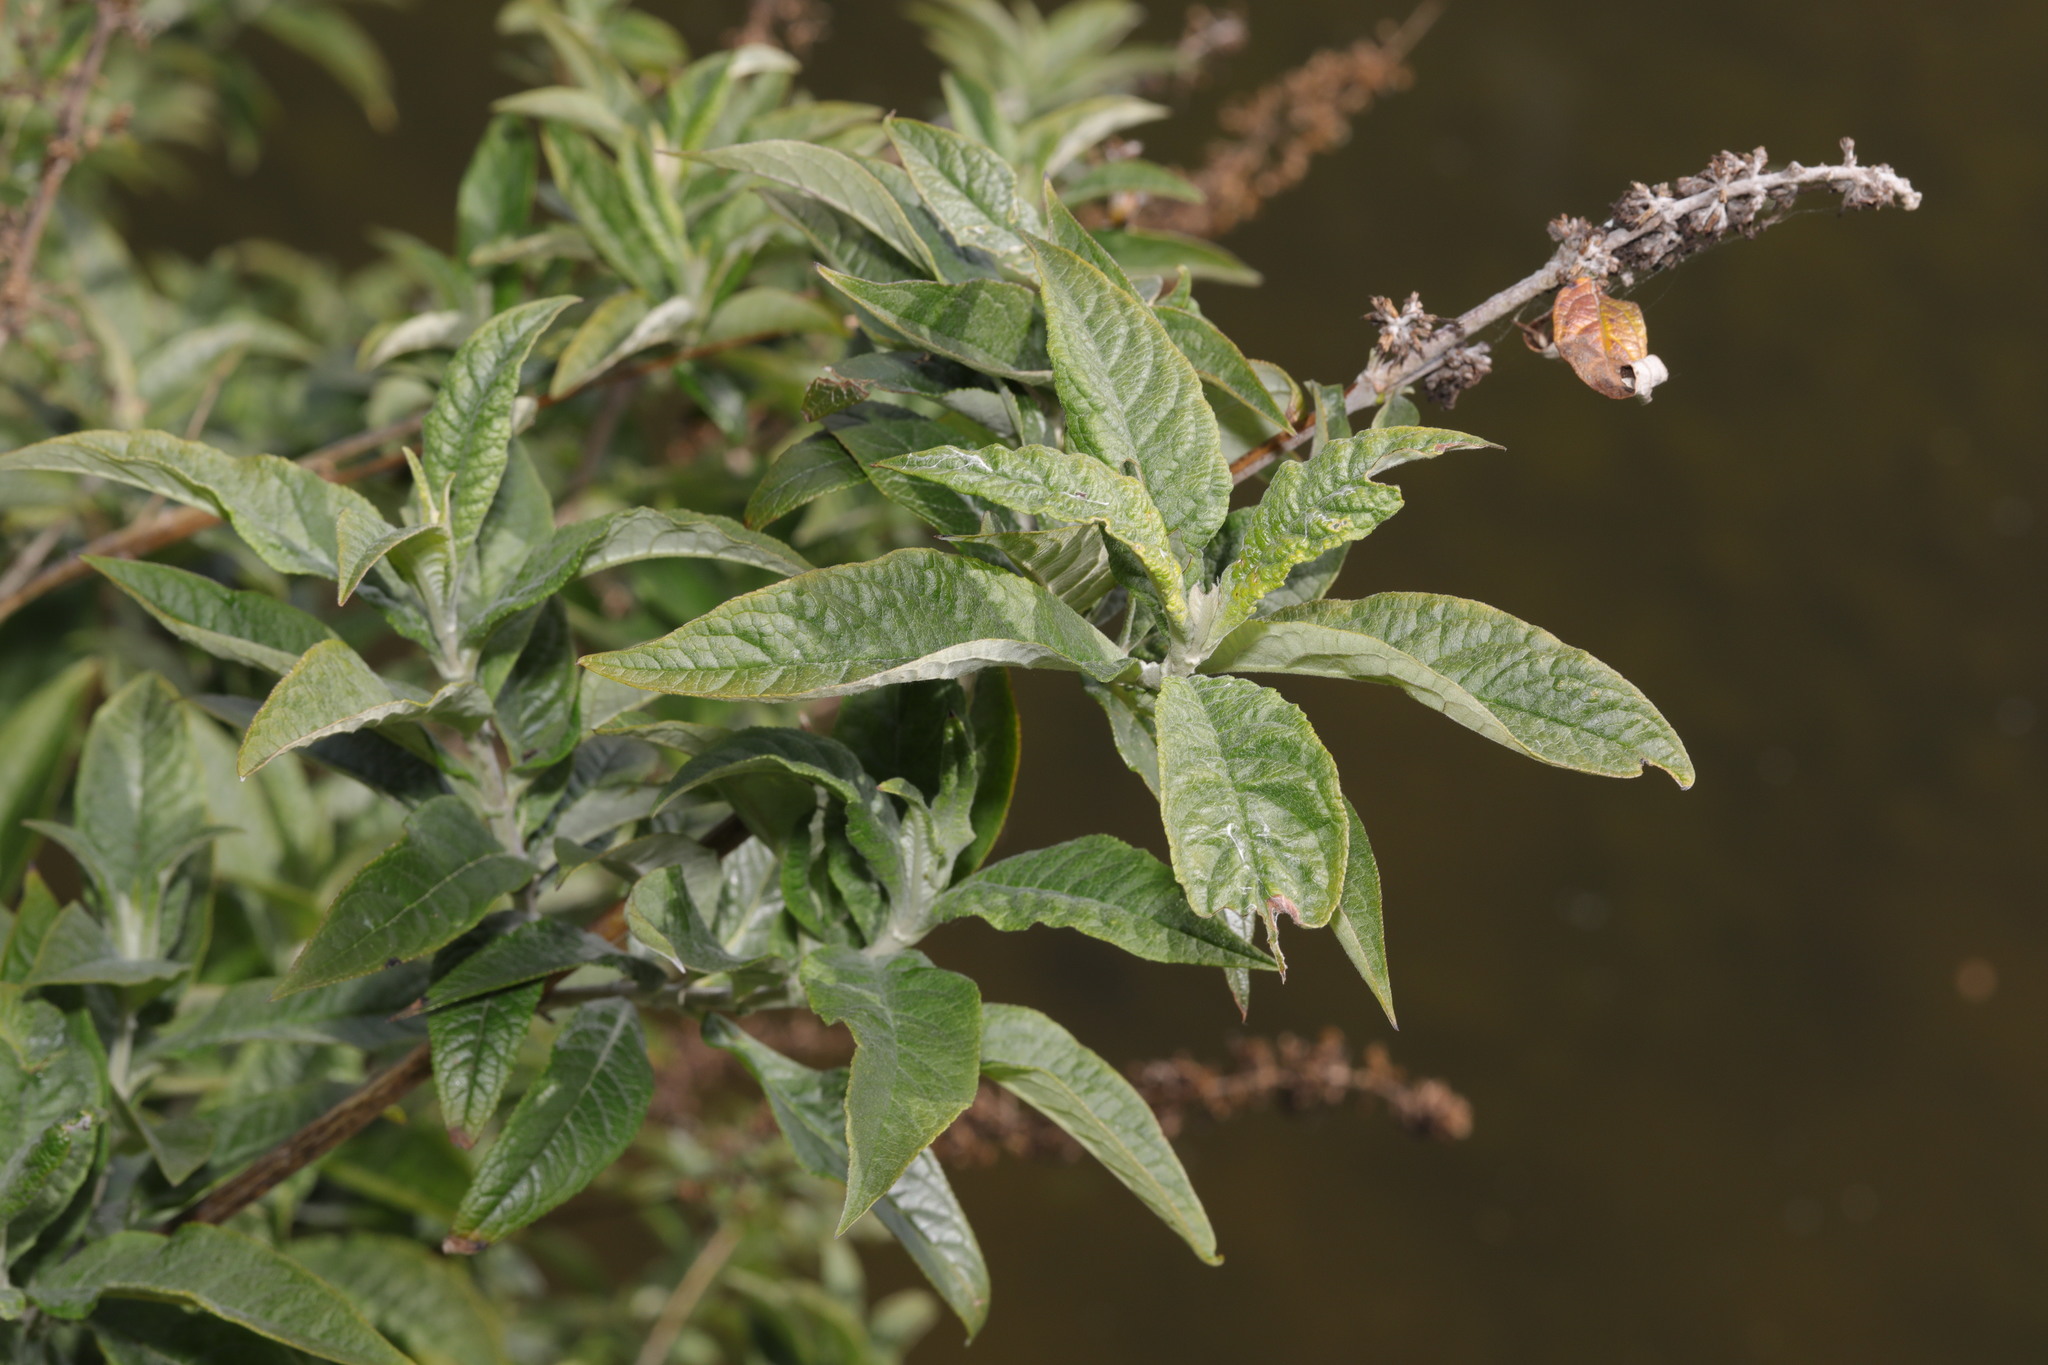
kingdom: Plantae
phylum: Tracheophyta
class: Magnoliopsida
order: Lamiales
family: Scrophulariaceae
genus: Buddleja
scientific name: Buddleja davidii
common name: Butterfly-bush
